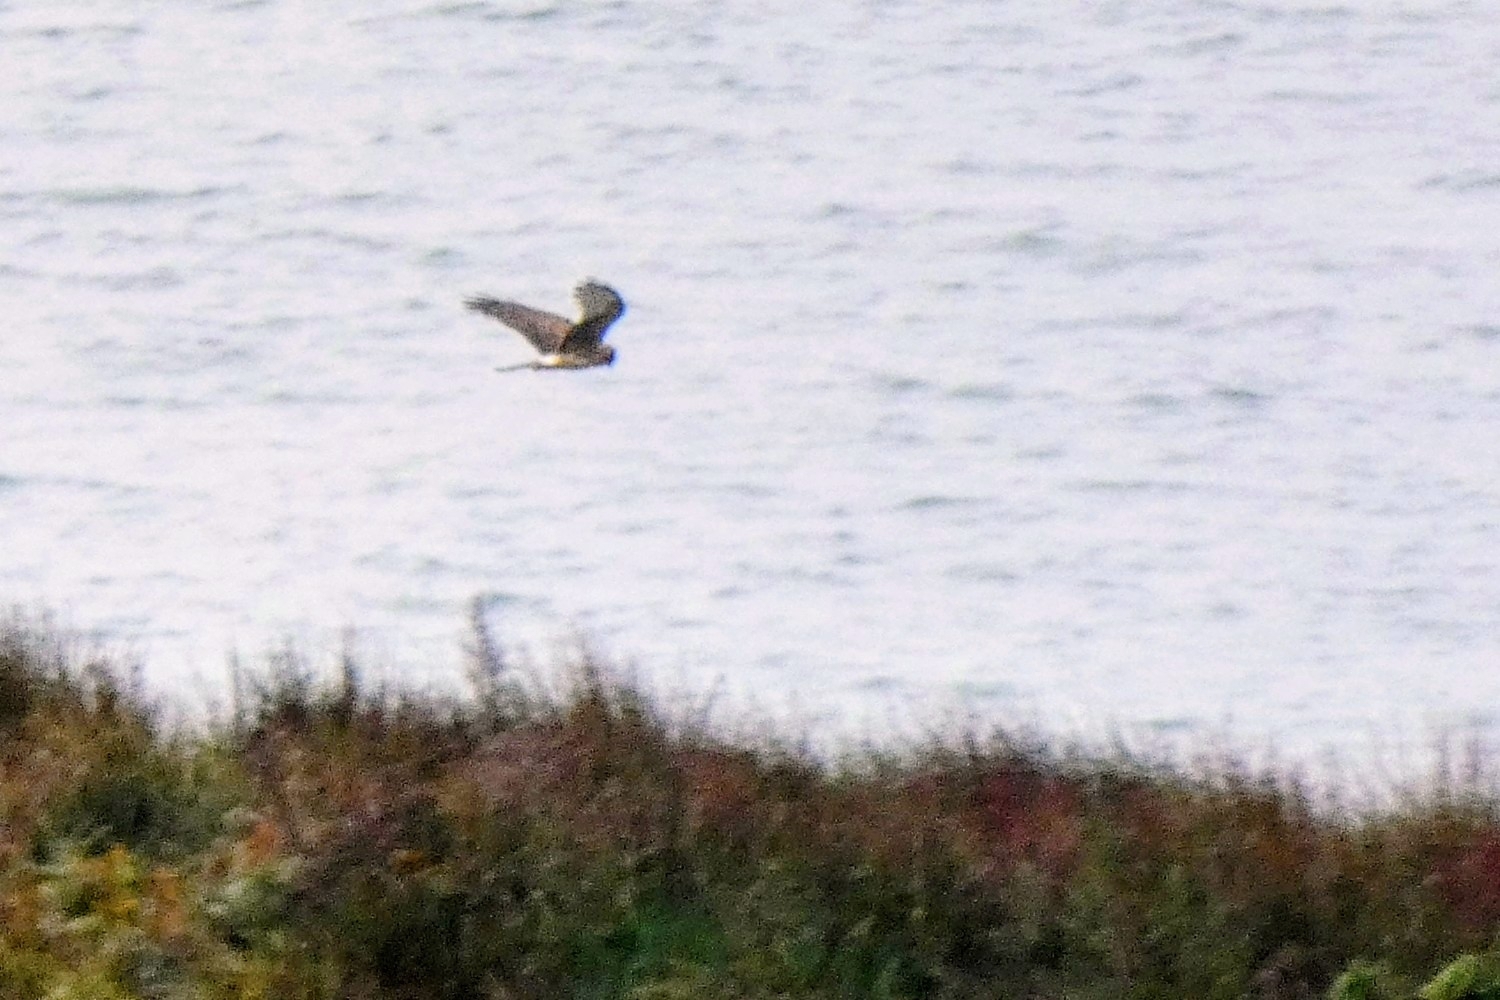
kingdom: Animalia
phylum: Chordata
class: Aves
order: Accipitriformes
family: Accipitridae
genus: Circus
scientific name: Circus cyaneus
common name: Hen harrier
